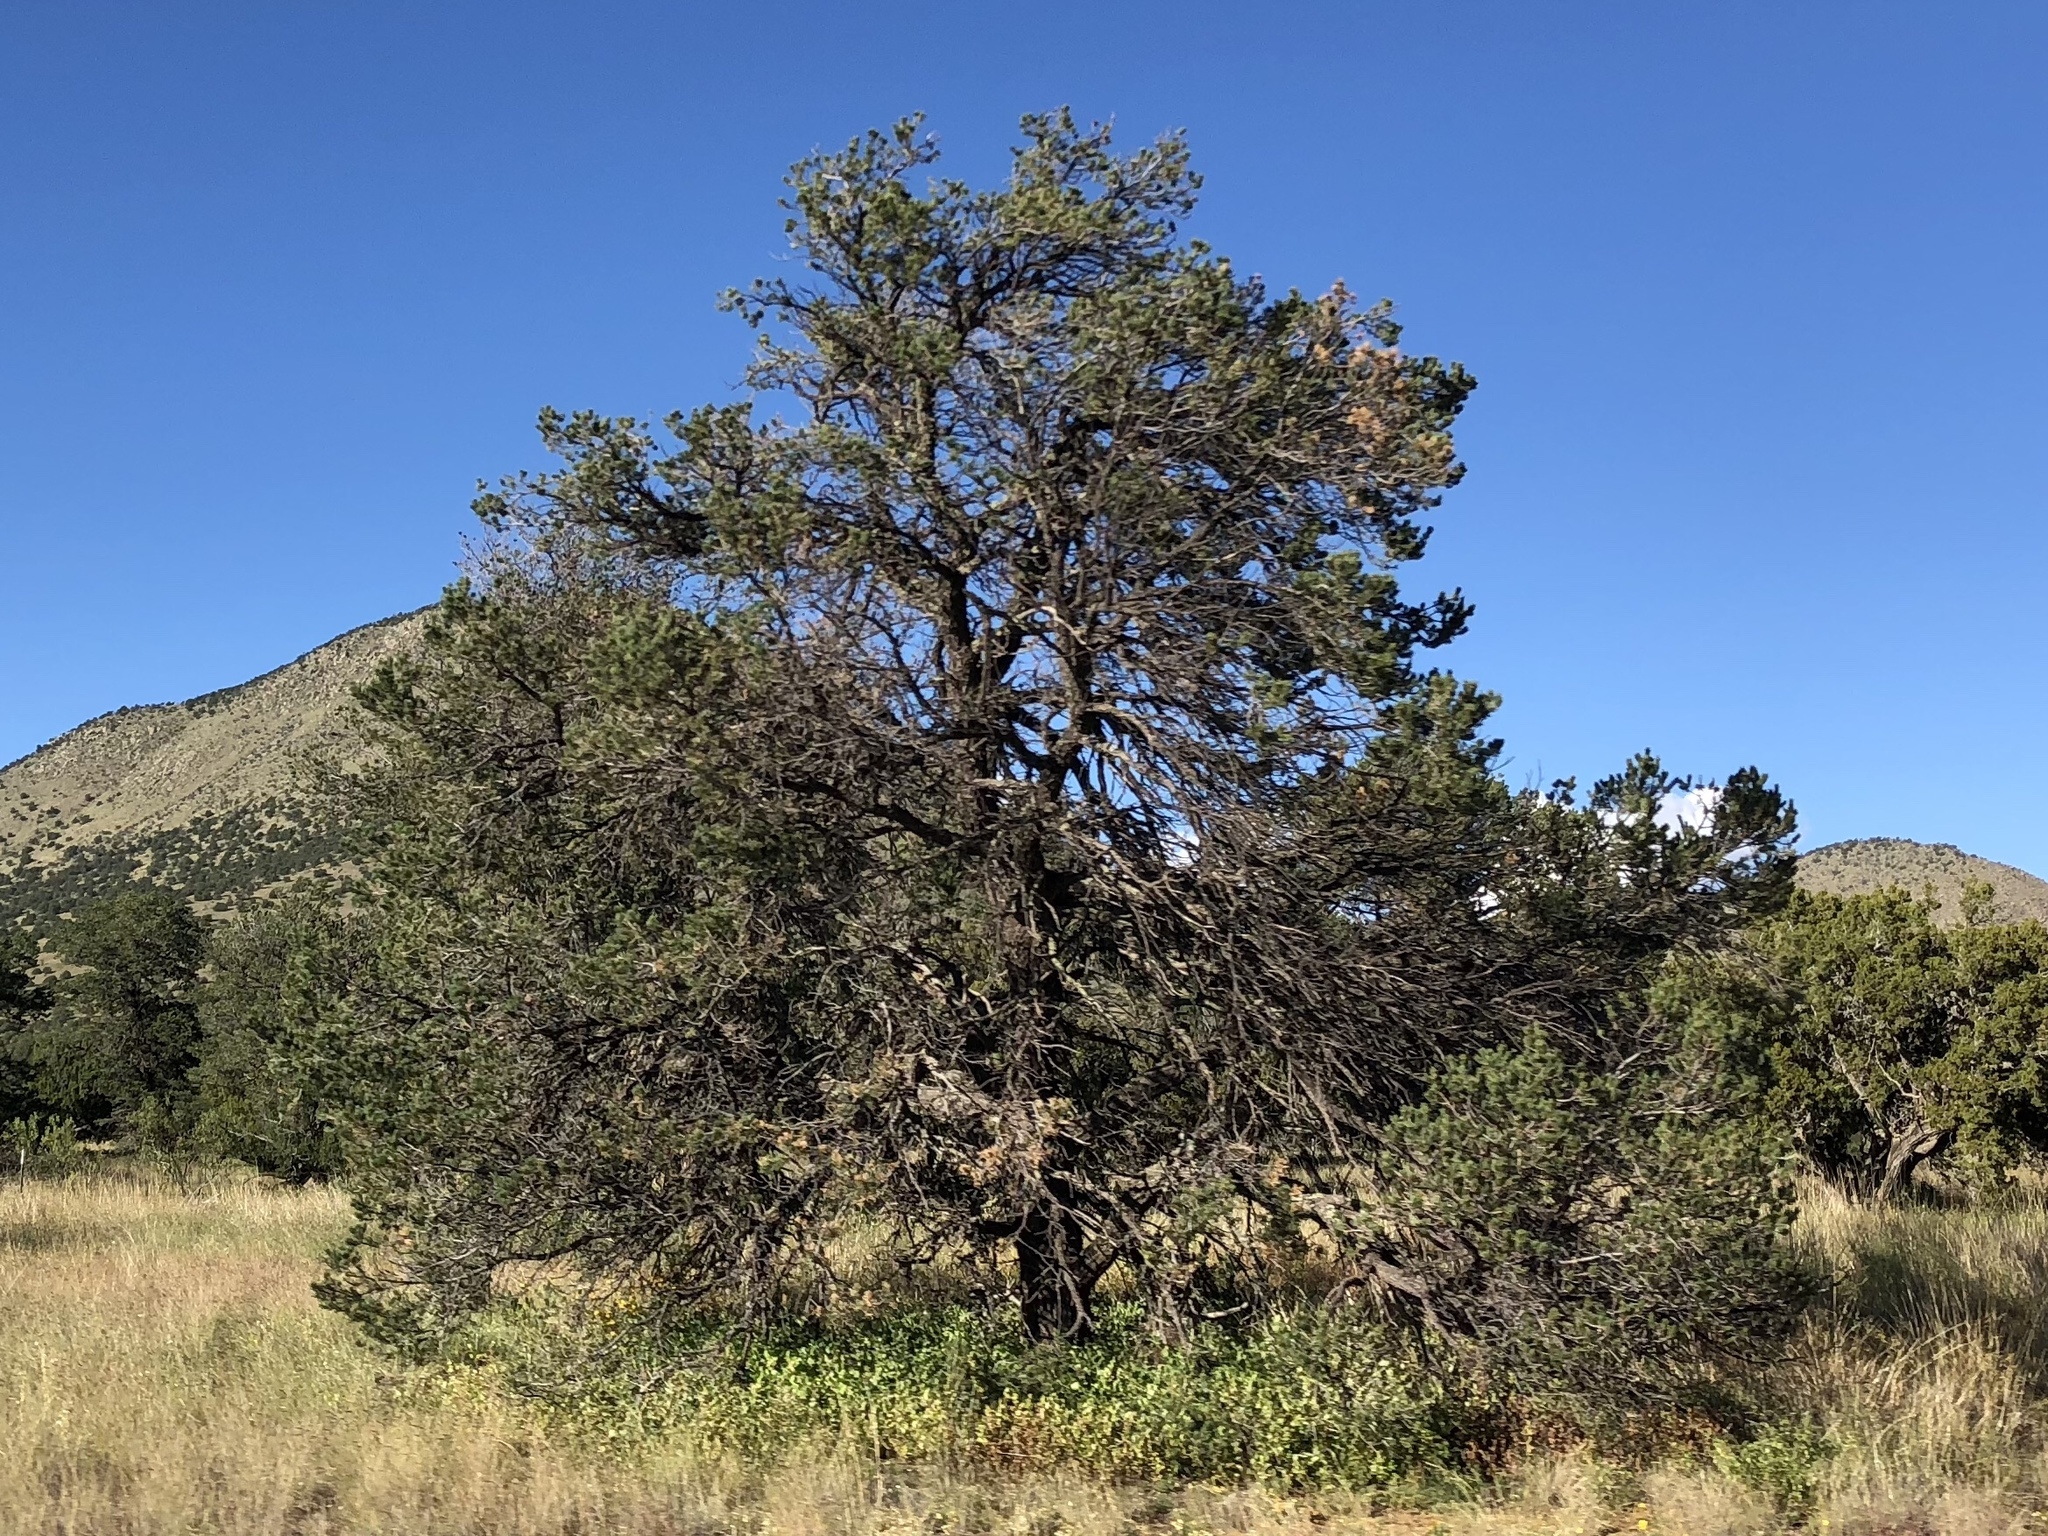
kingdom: Plantae
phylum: Tracheophyta
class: Pinopsida
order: Pinales
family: Pinaceae
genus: Pinus
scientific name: Pinus edulis
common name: Colorado pinyon
